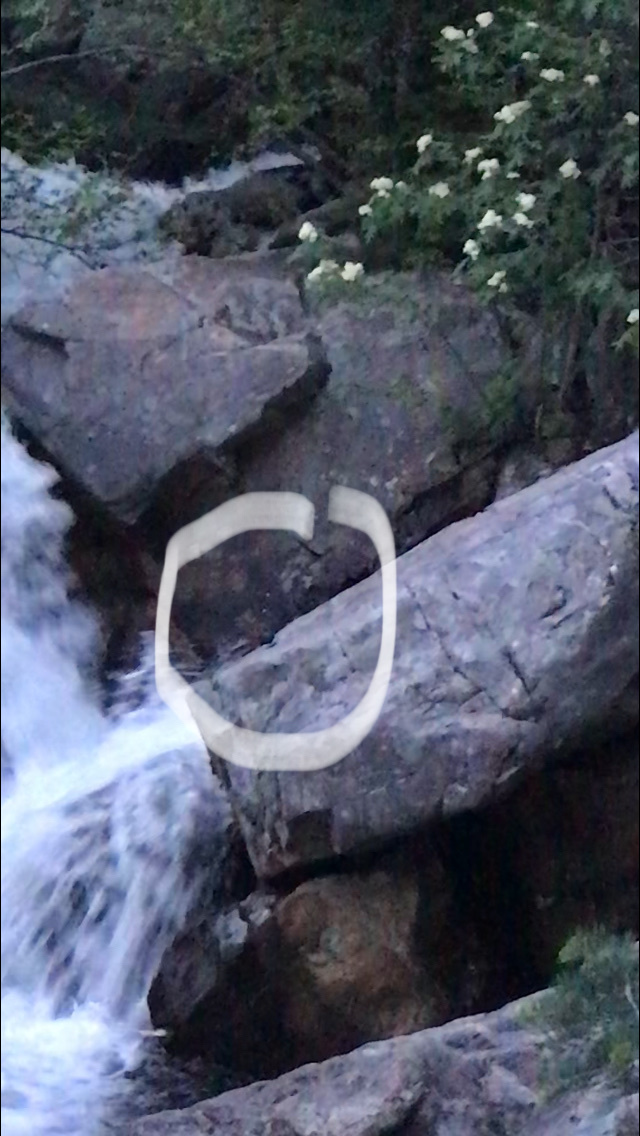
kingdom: Animalia
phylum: Chordata
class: Aves
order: Passeriformes
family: Cinclidae
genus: Cinclus
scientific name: Cinclus mexicanus
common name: American dipper
